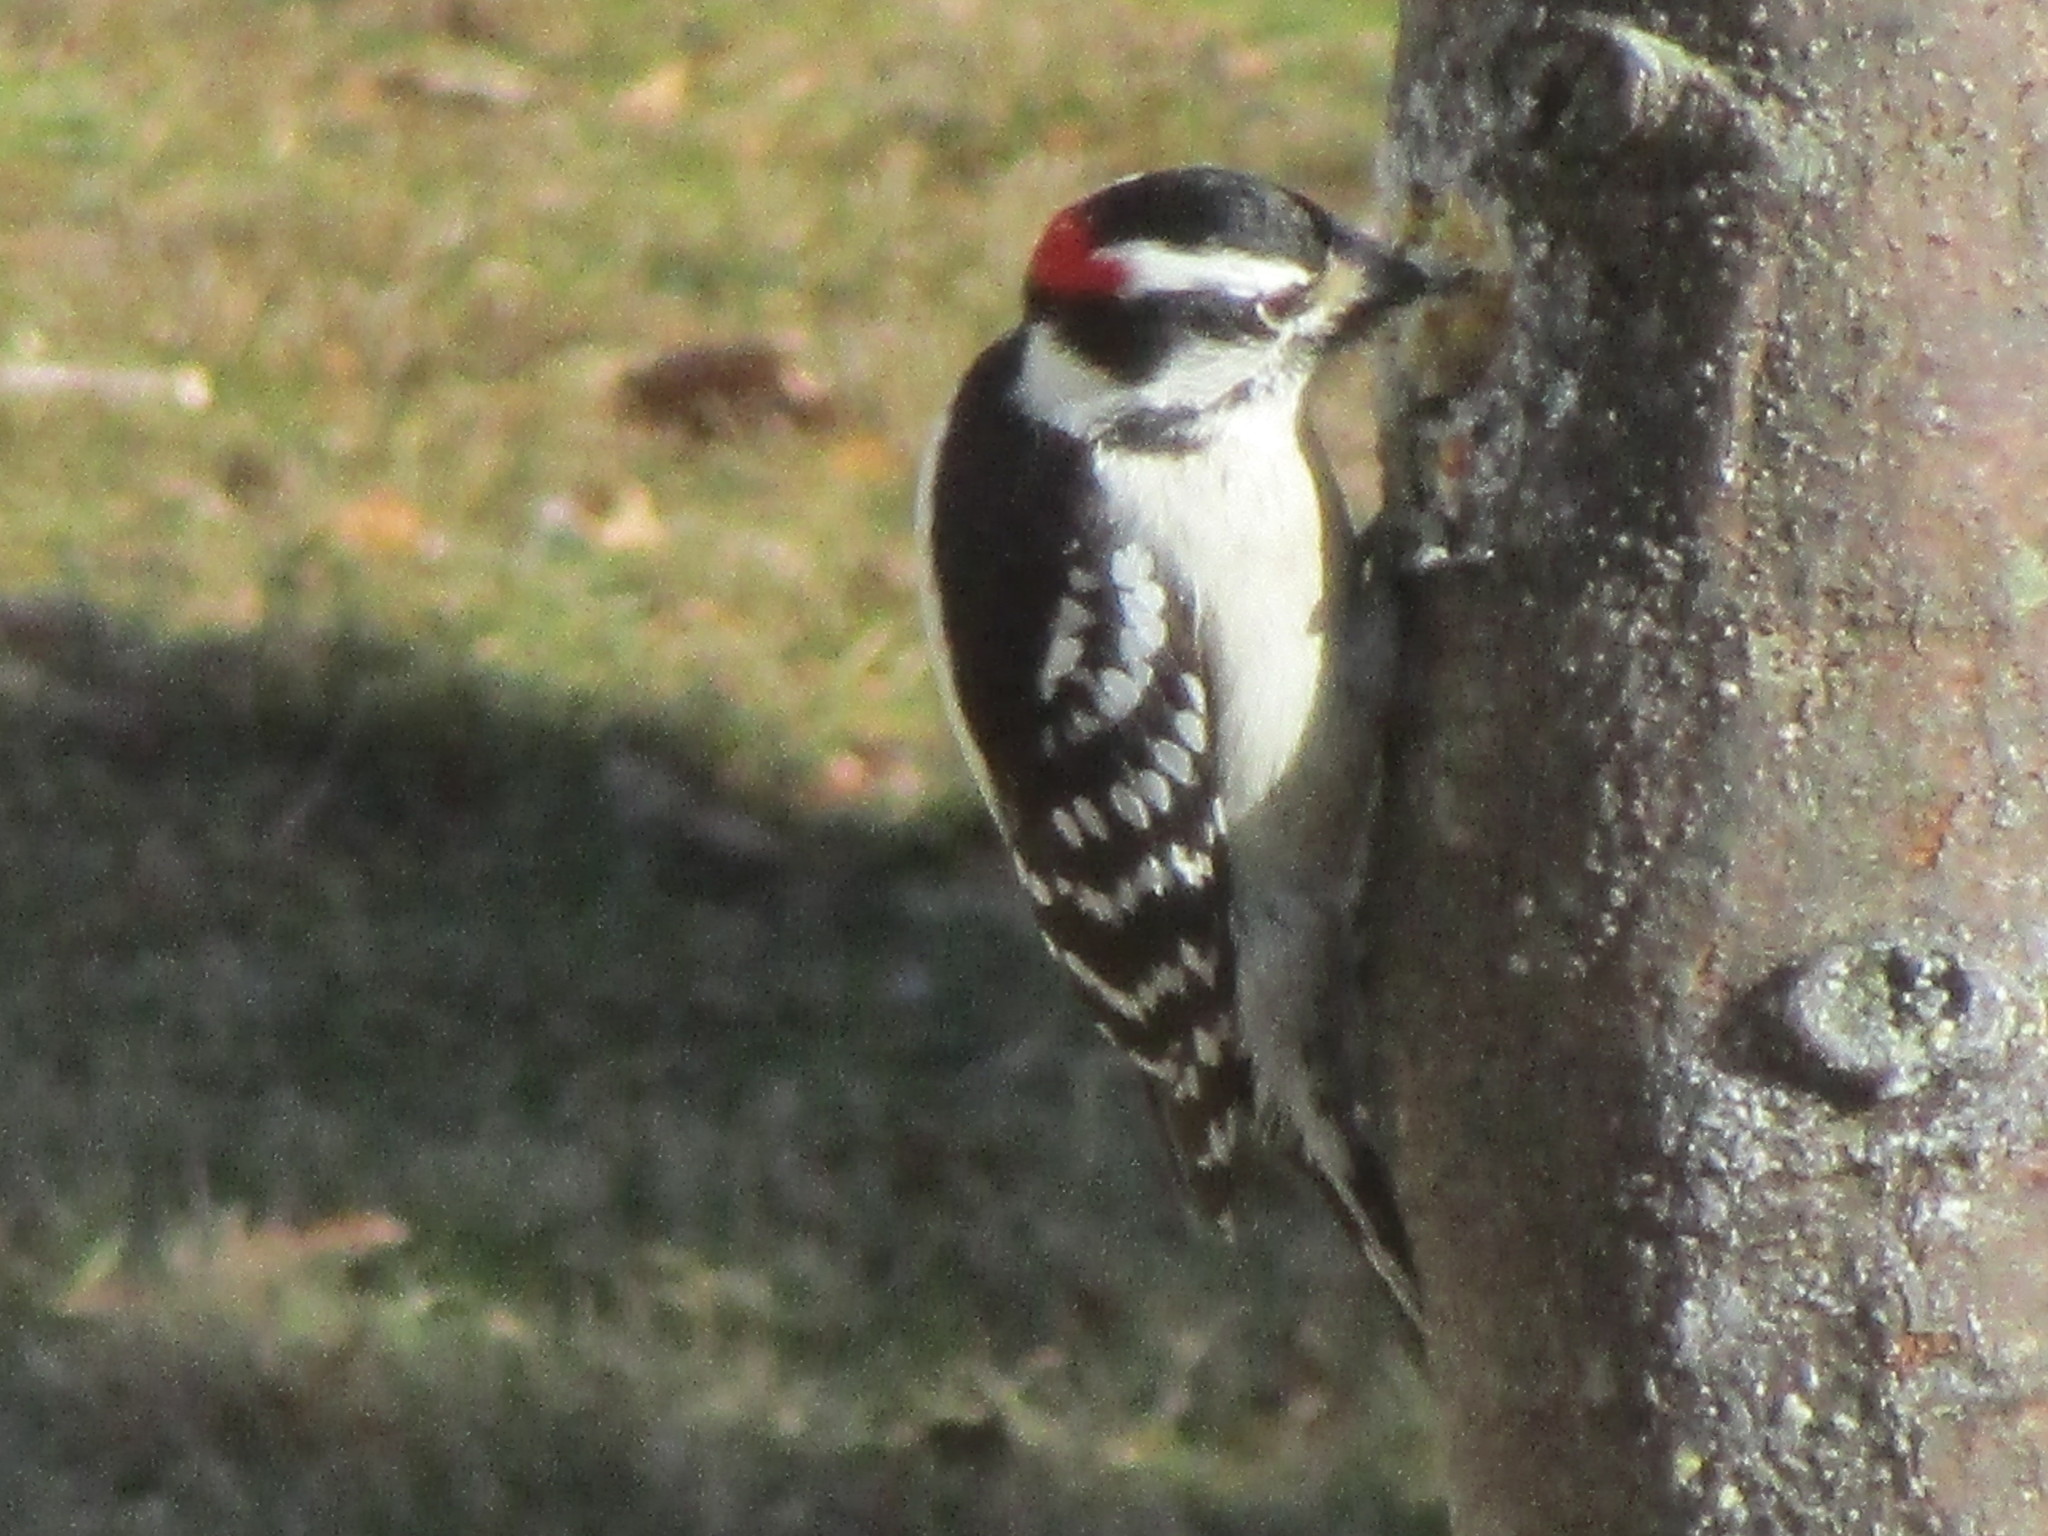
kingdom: Animalia
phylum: Chordata
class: Aves
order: Piciformes
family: Picidae
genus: Dryobates
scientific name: Dryobates pubescens
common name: Downy woodpecker
